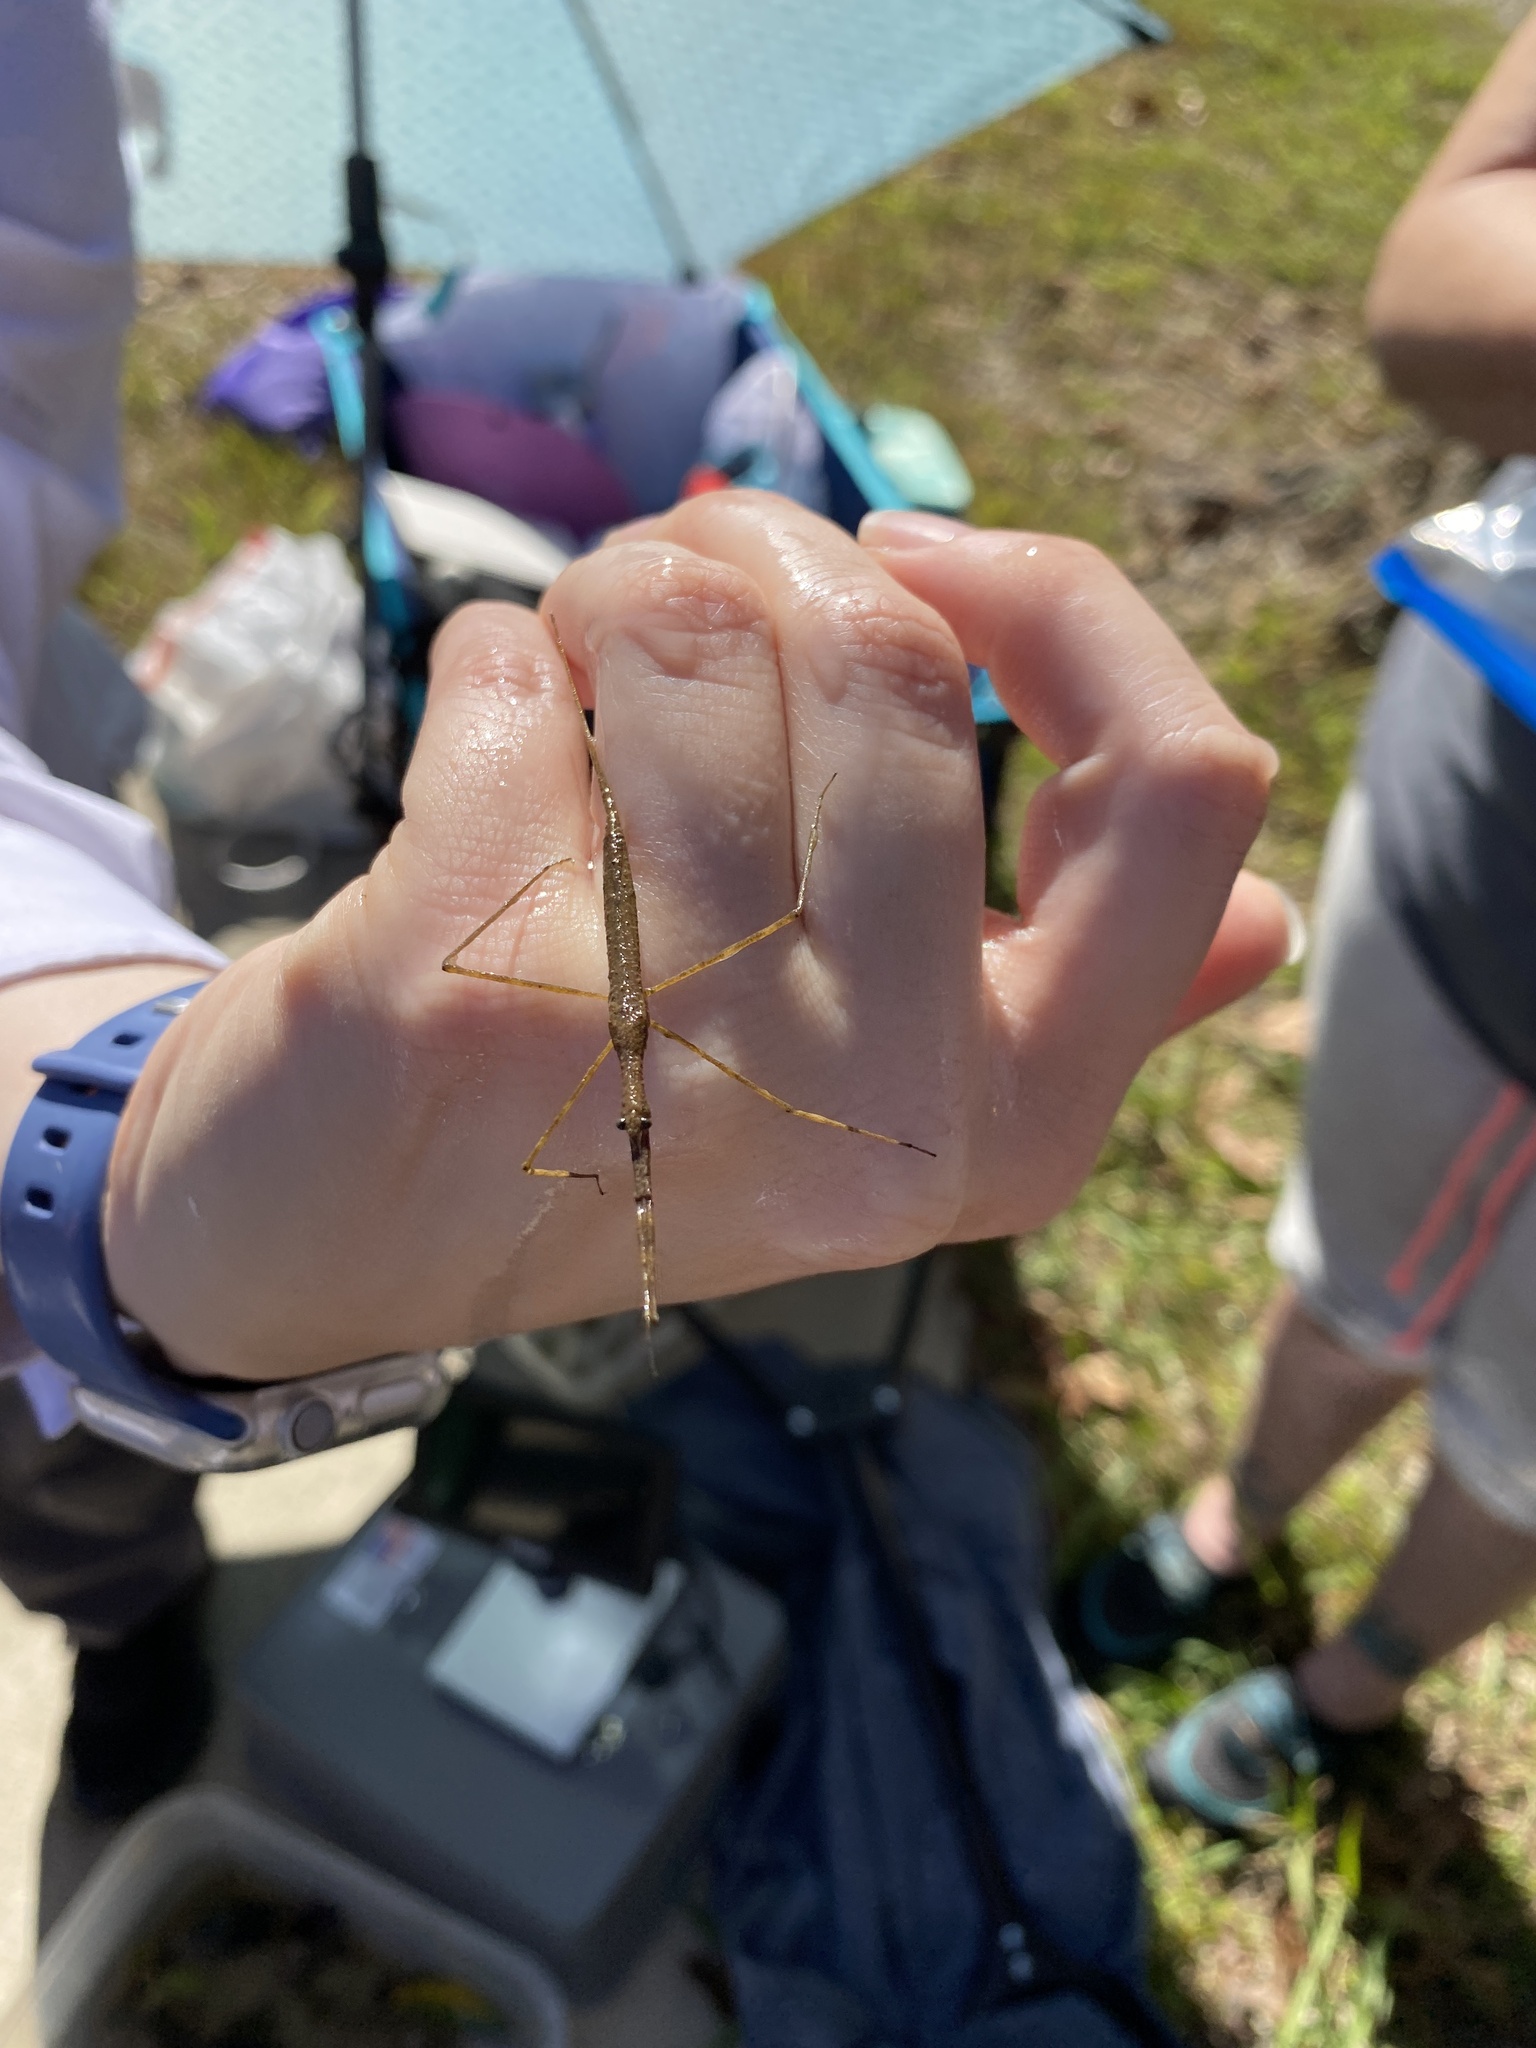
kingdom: Animalia
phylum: Arthropoda
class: Insecta
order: Hemiptera
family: Nepidae
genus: Ranatra
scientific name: Ranatra
